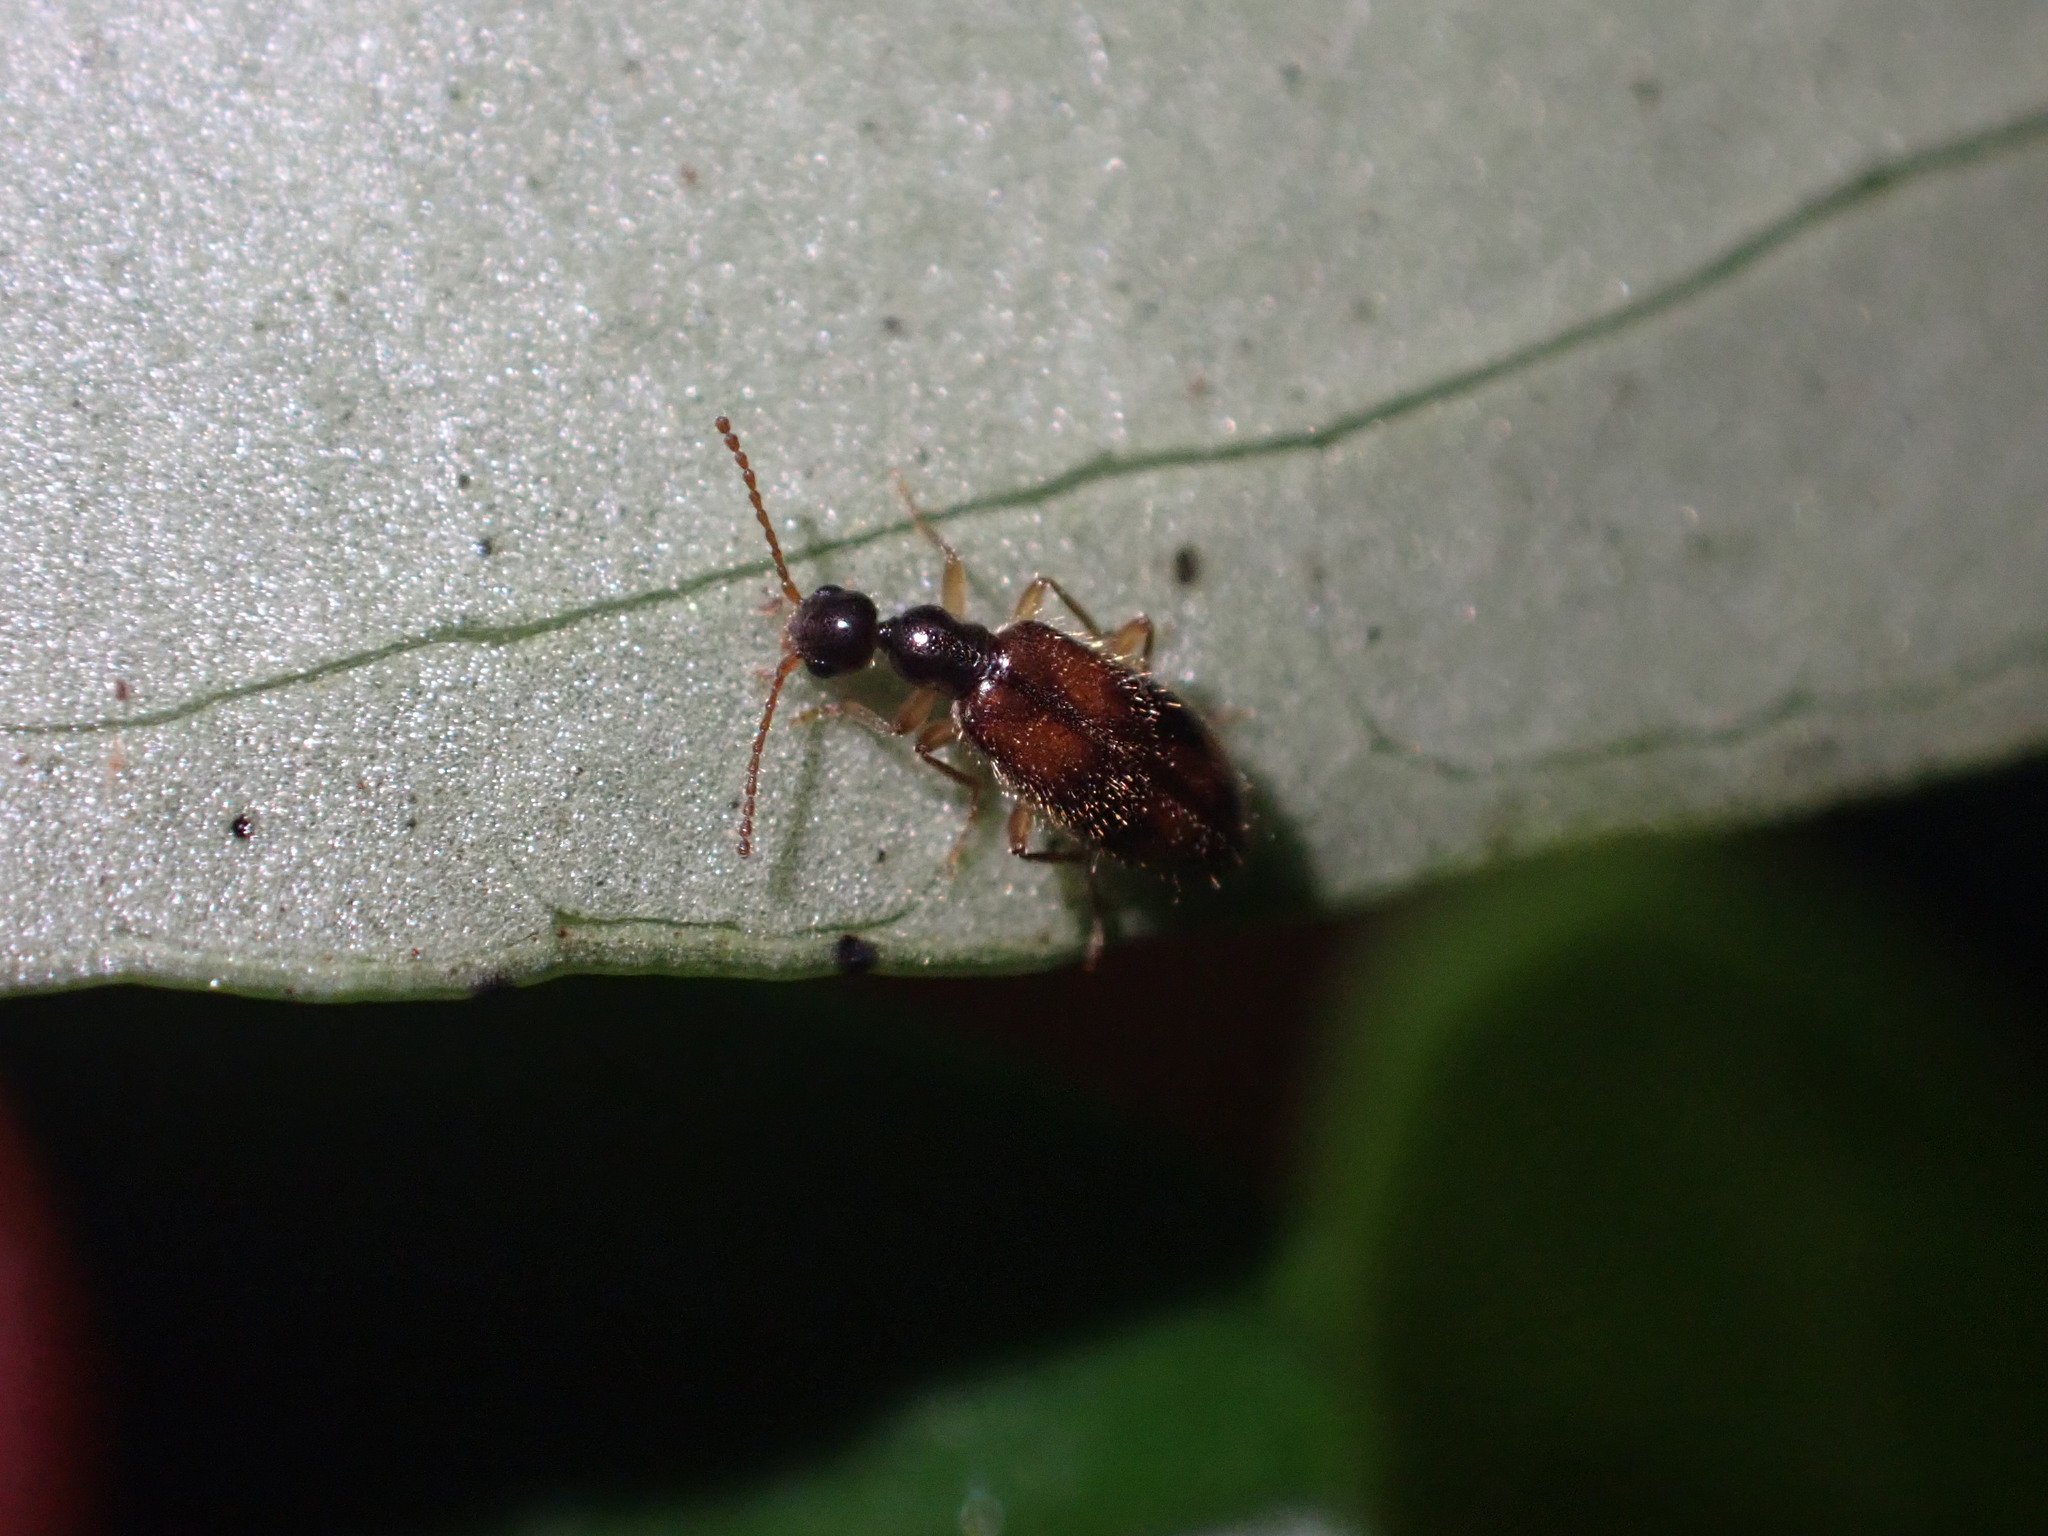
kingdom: Animalia
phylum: Arthropoda
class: Insecta
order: Coleoptera
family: Anthicidae
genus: Sapintus
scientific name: Sapintus pellucidipes
